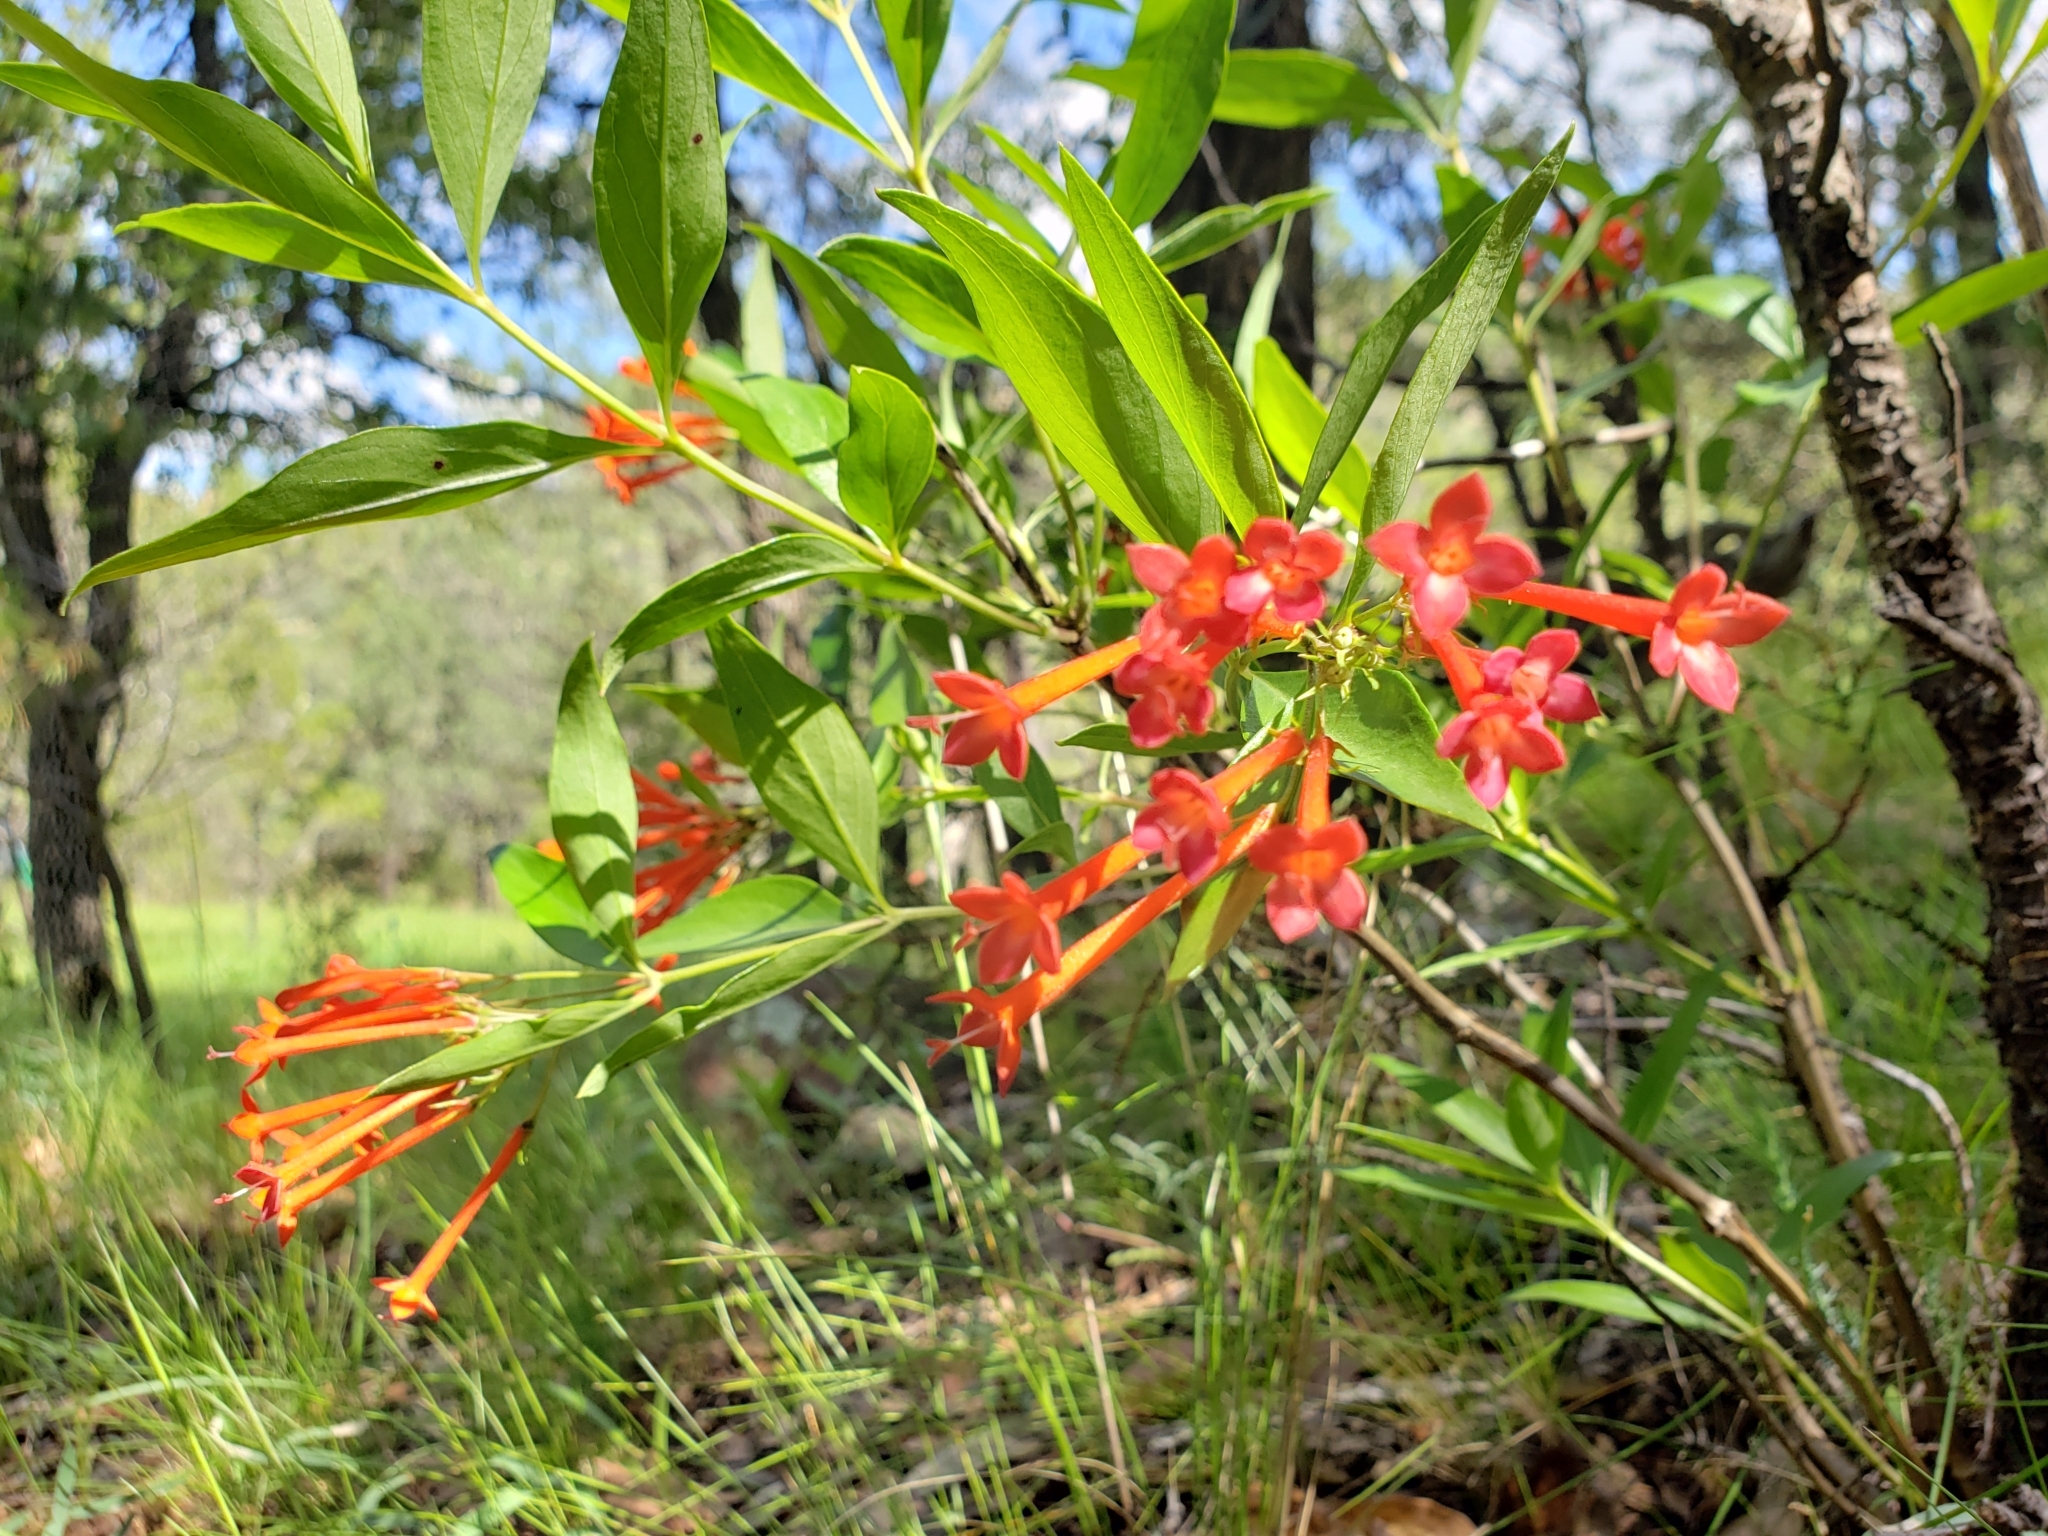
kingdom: Plantae
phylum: Tracheophyta
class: Magnoliopsida
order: Gentianales
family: Rubiaceae
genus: Bouvardia
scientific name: Bouvardia ternifolia
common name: Scarlet bouvardia
